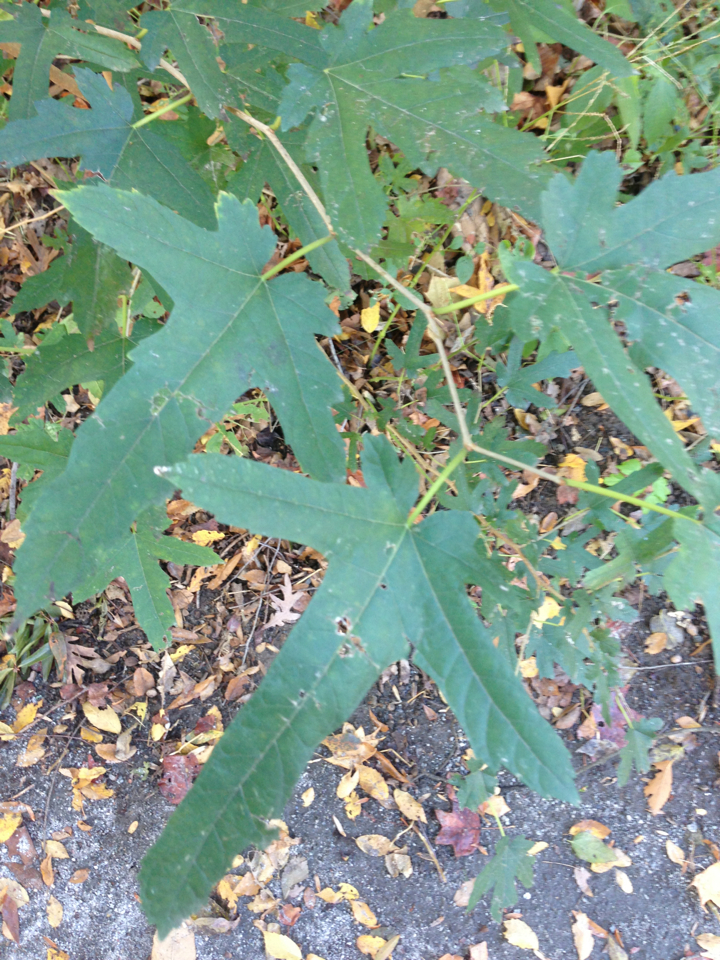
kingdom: Plantae
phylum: Tracheophyta
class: Magnoliopsida
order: Saxifragales
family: Altingiaceae
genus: Liquidambar
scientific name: Liquidambar styraciflua
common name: Sweet gum
